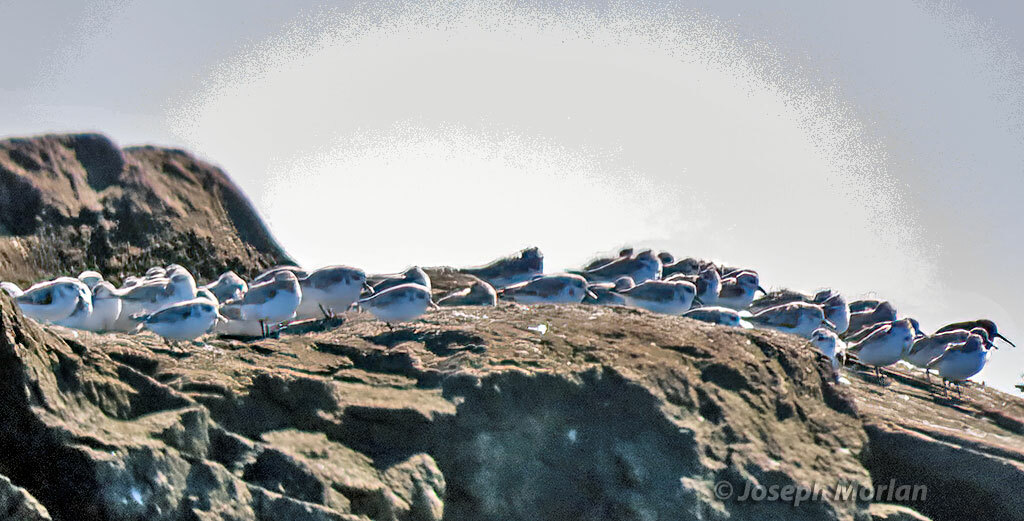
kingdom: Animalia
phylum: Chordata
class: Aves
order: Charadriiformes
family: Scolopacidae
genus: Calidris
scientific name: Calidris alba
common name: Sanderling
